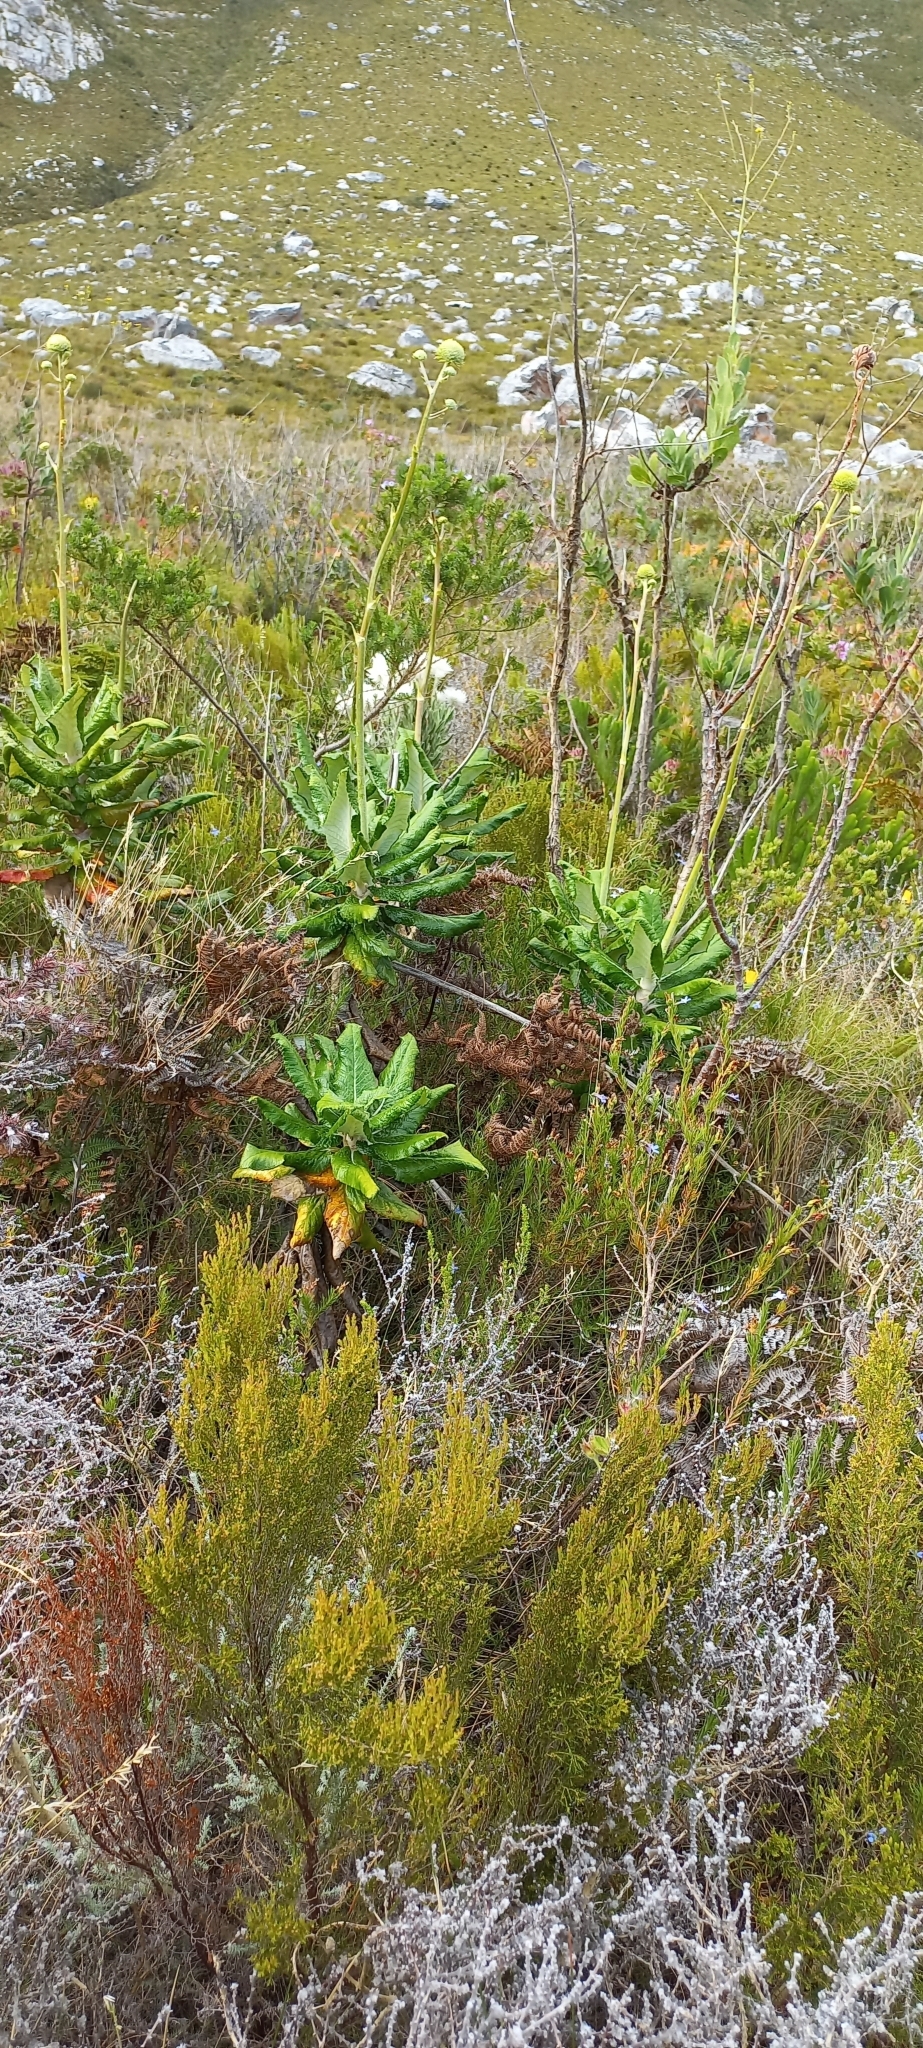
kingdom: Plantae
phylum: Tracheophyta
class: Magnoliopsida
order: Apiales
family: Apiaceae
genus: Hermas
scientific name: Hermas villosa
